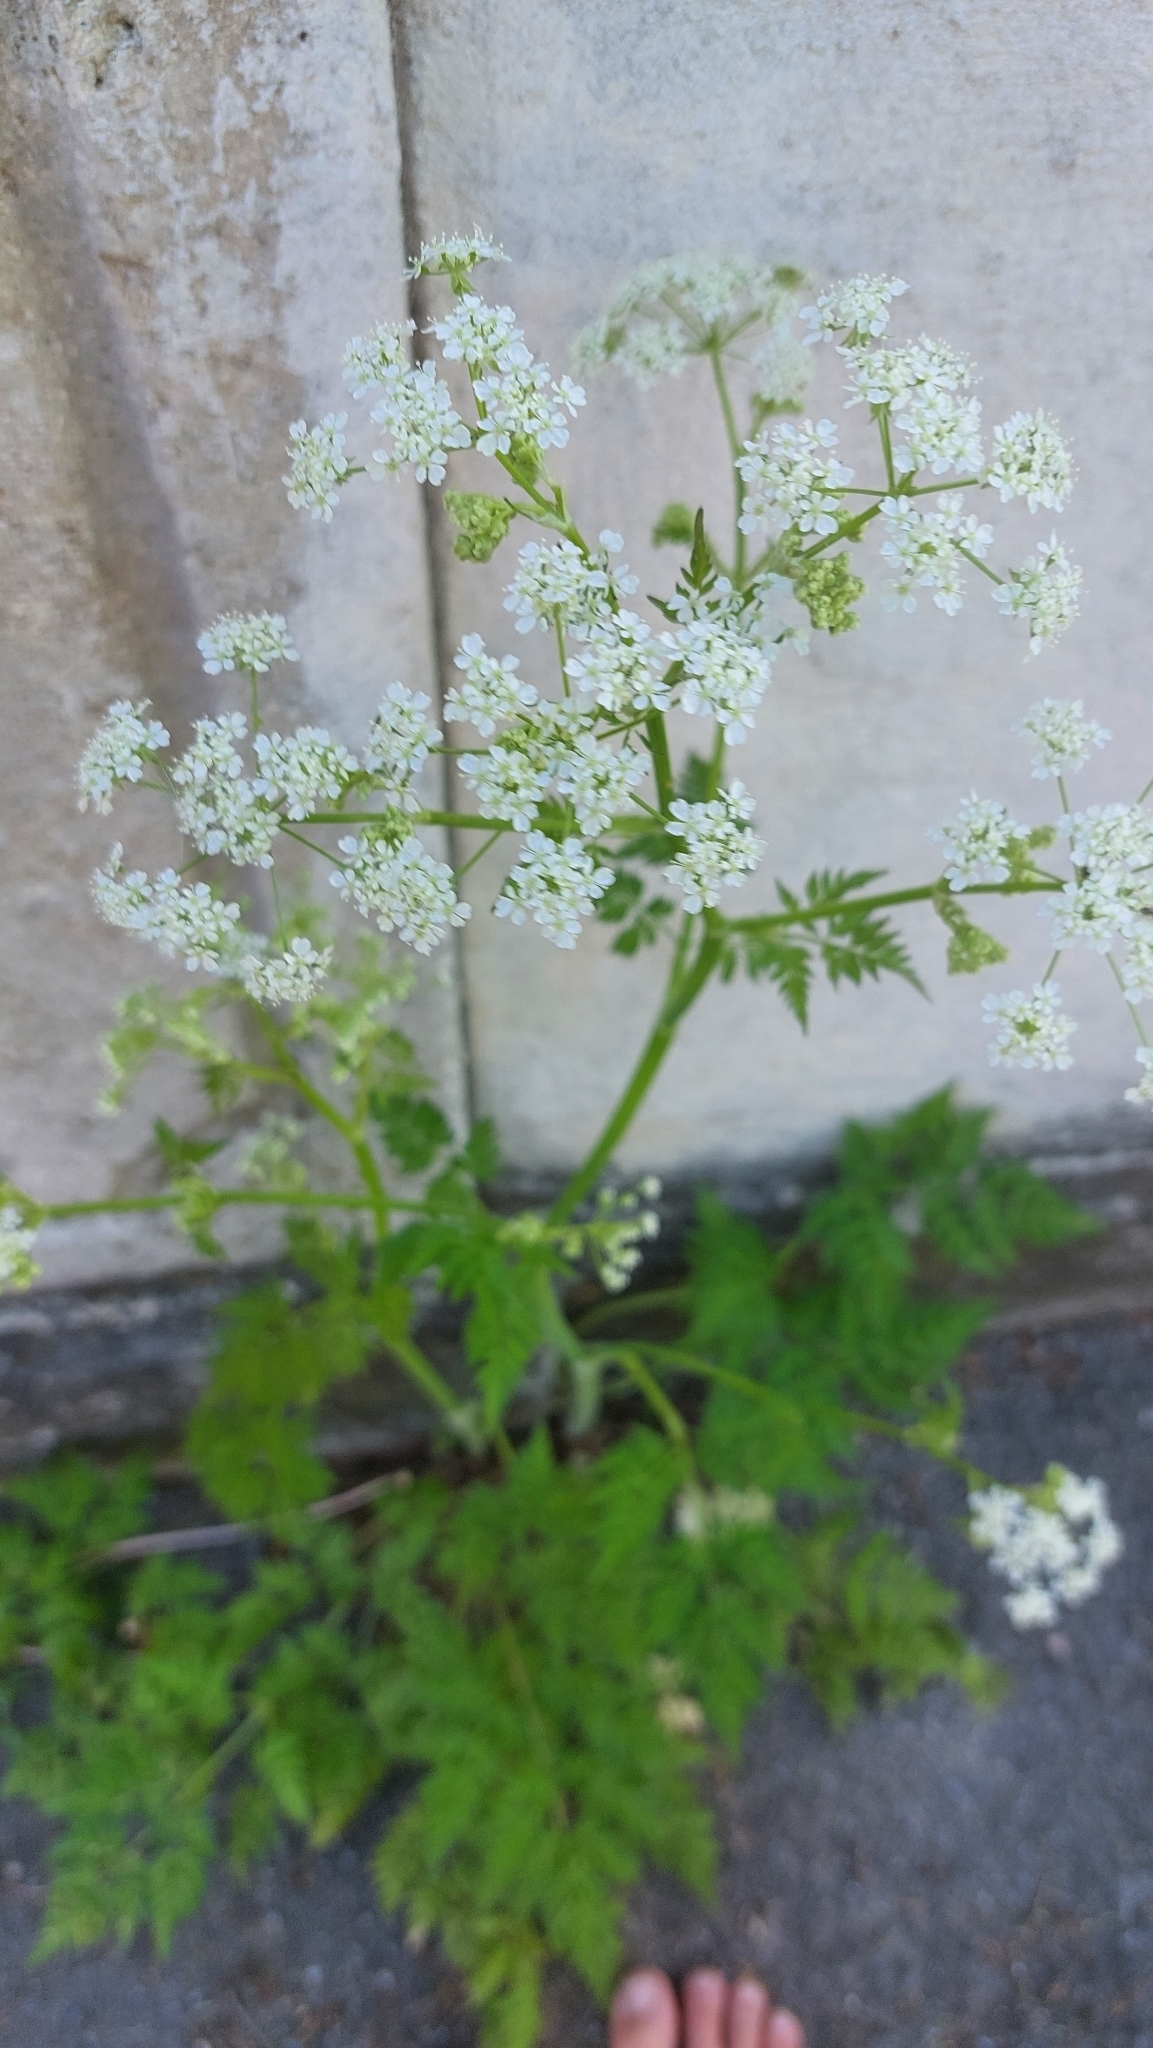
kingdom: Plantae
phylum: Tracheophyta
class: Magnoliopsida
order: Apiales
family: Apiaceae
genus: Anthriscus
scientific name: Anthriscus sylvestris
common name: Cow parsley
